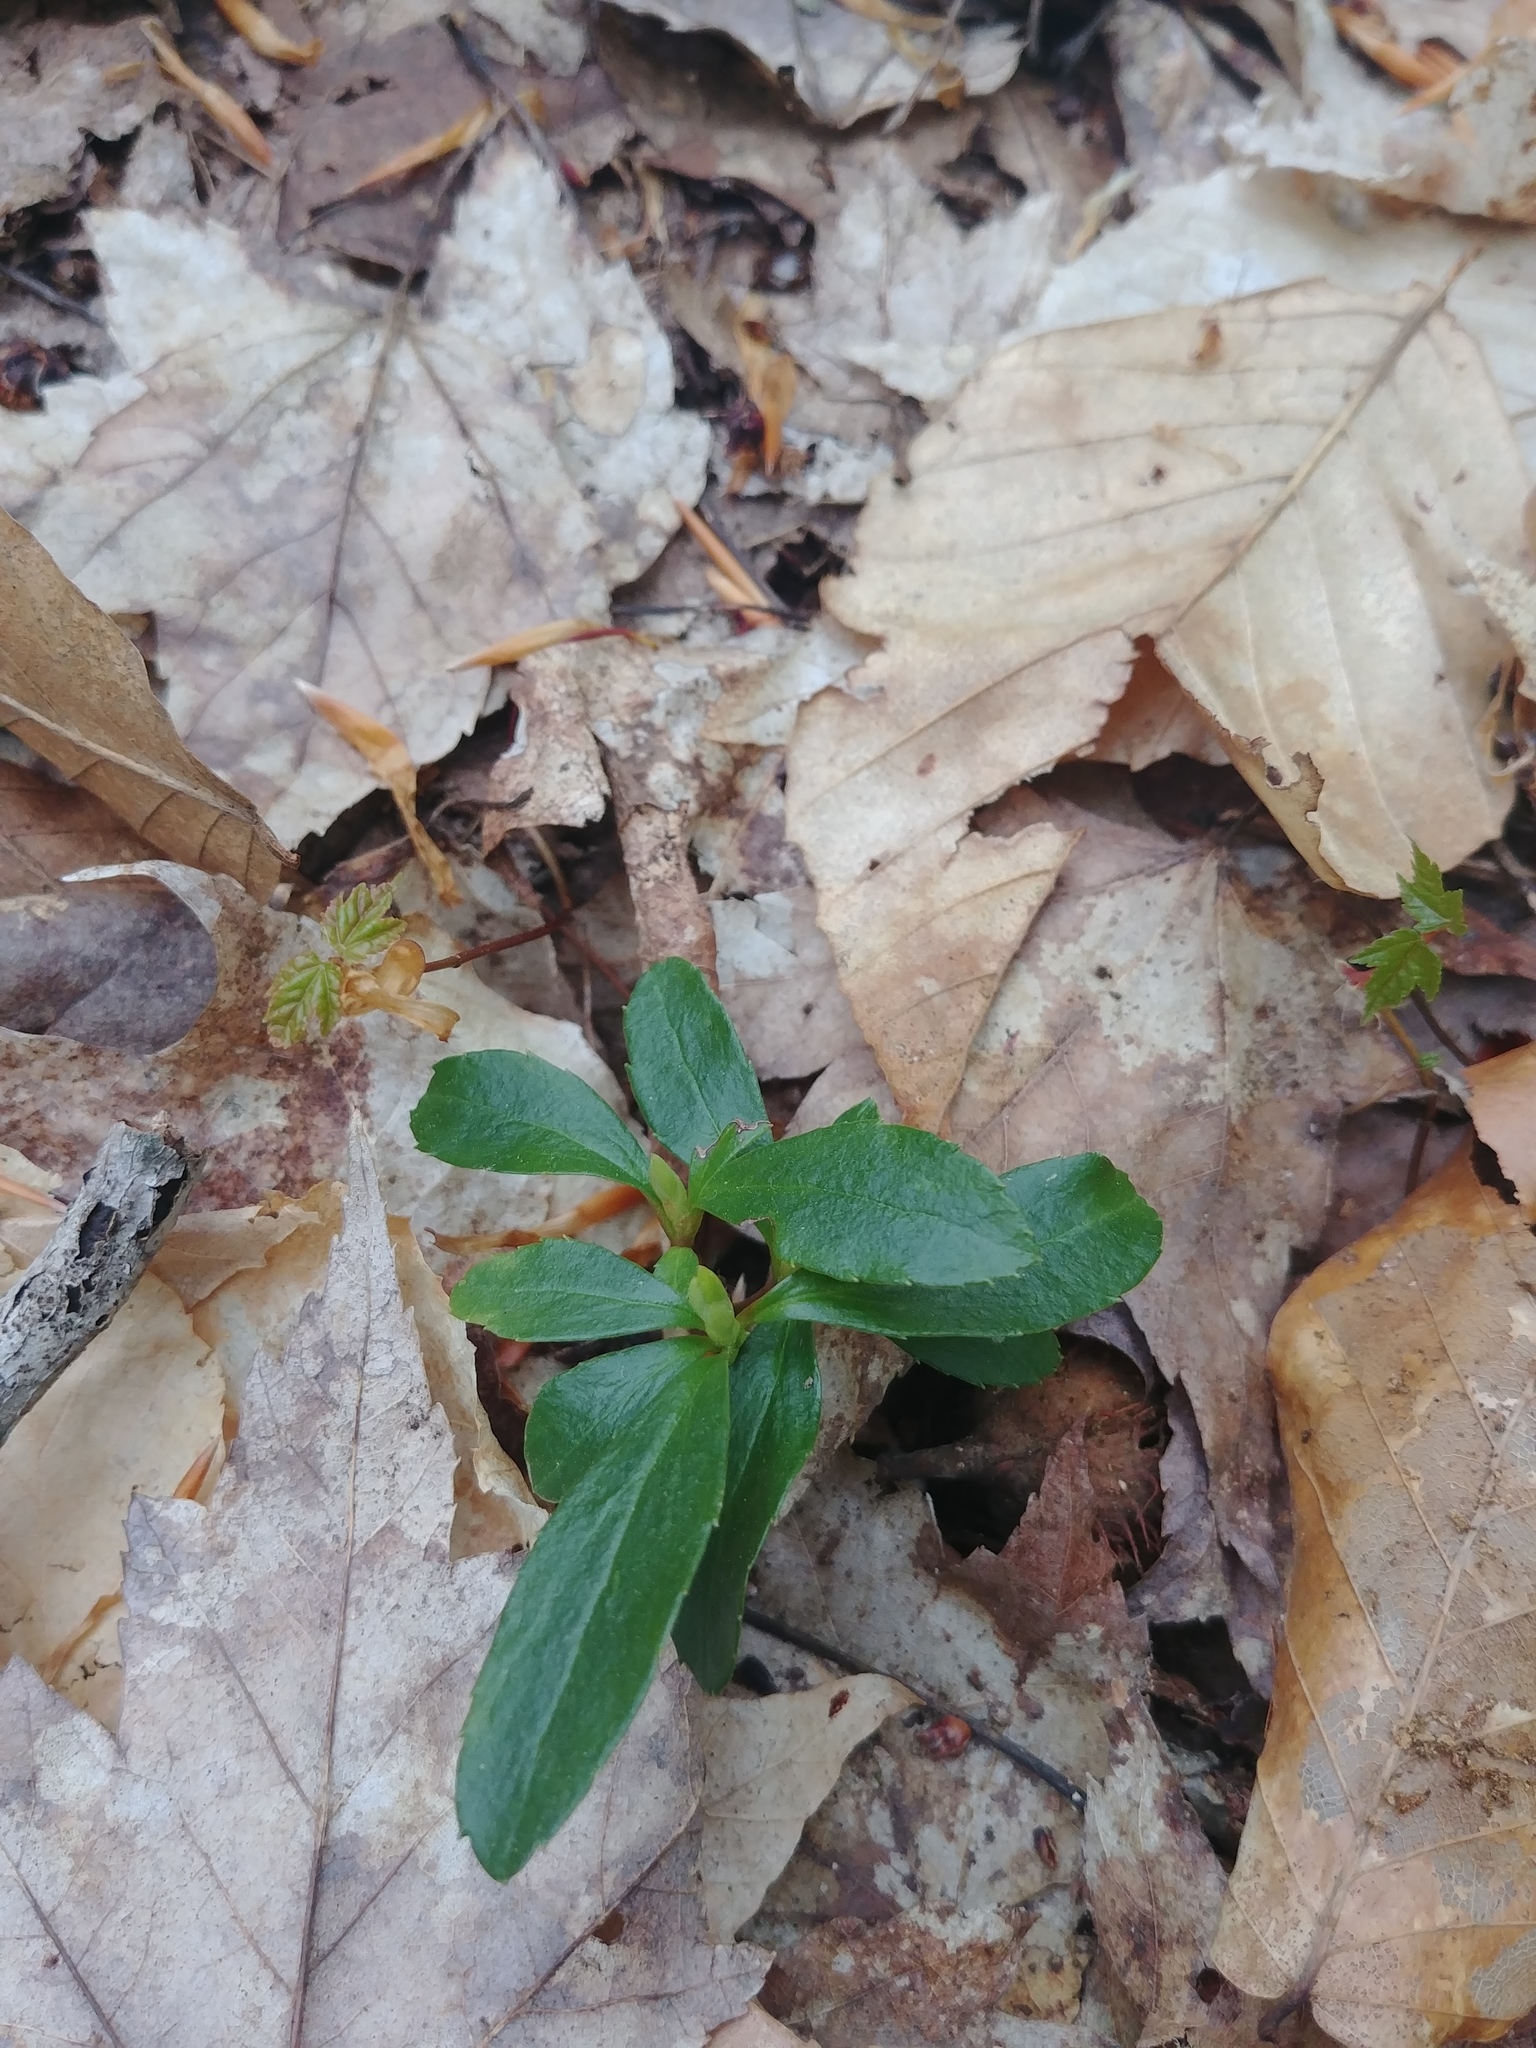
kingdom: Plantae
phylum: Tracheophyta
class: Magnoliopsida
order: Ericales
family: Ericaceae
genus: Chimaphila
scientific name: Chimaphila umbellata
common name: Pipsissewa
